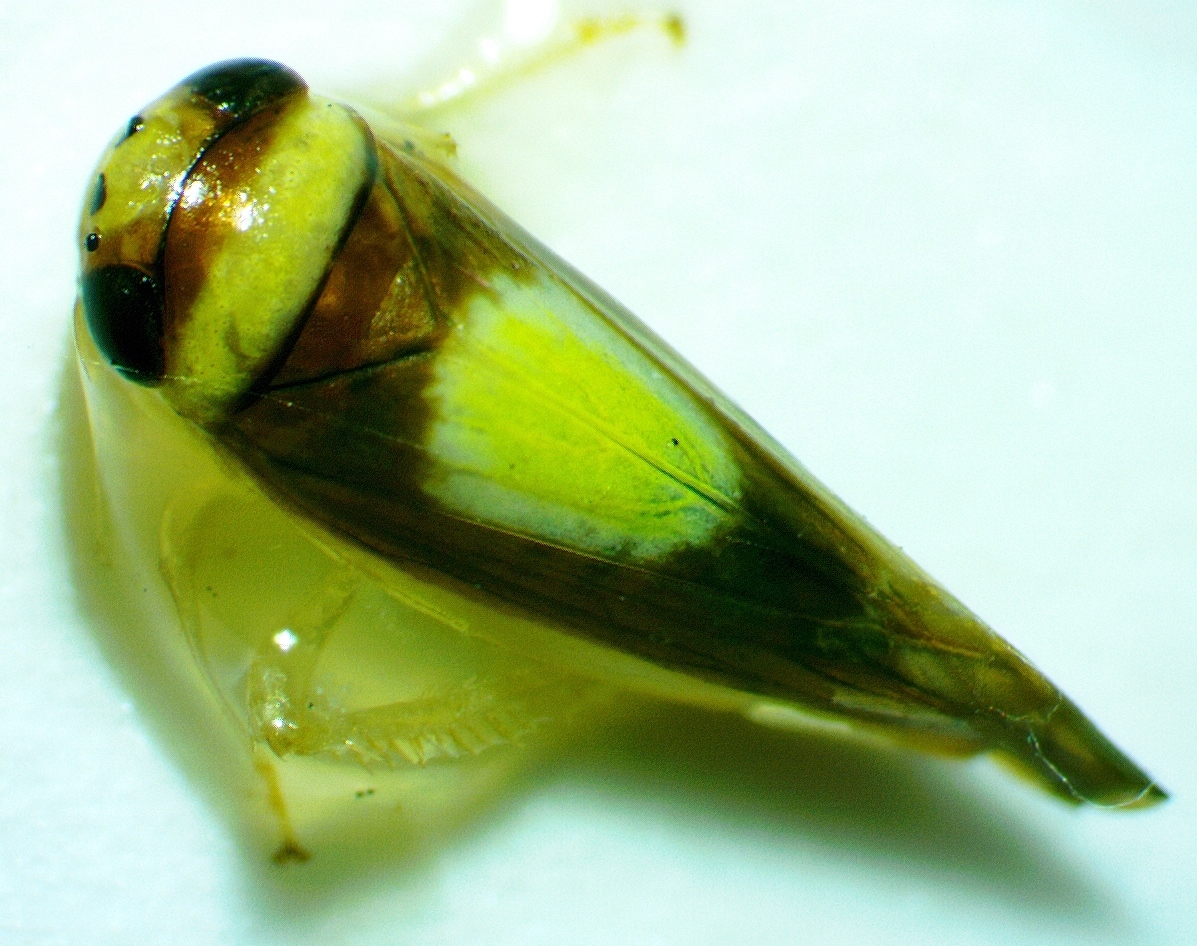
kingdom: Animalia
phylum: Arthropoda
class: Insecta
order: Hemiptera
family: Cicadellidae
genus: Colladonus
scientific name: Colladonus clitellarius
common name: The saddleback leafhopper
